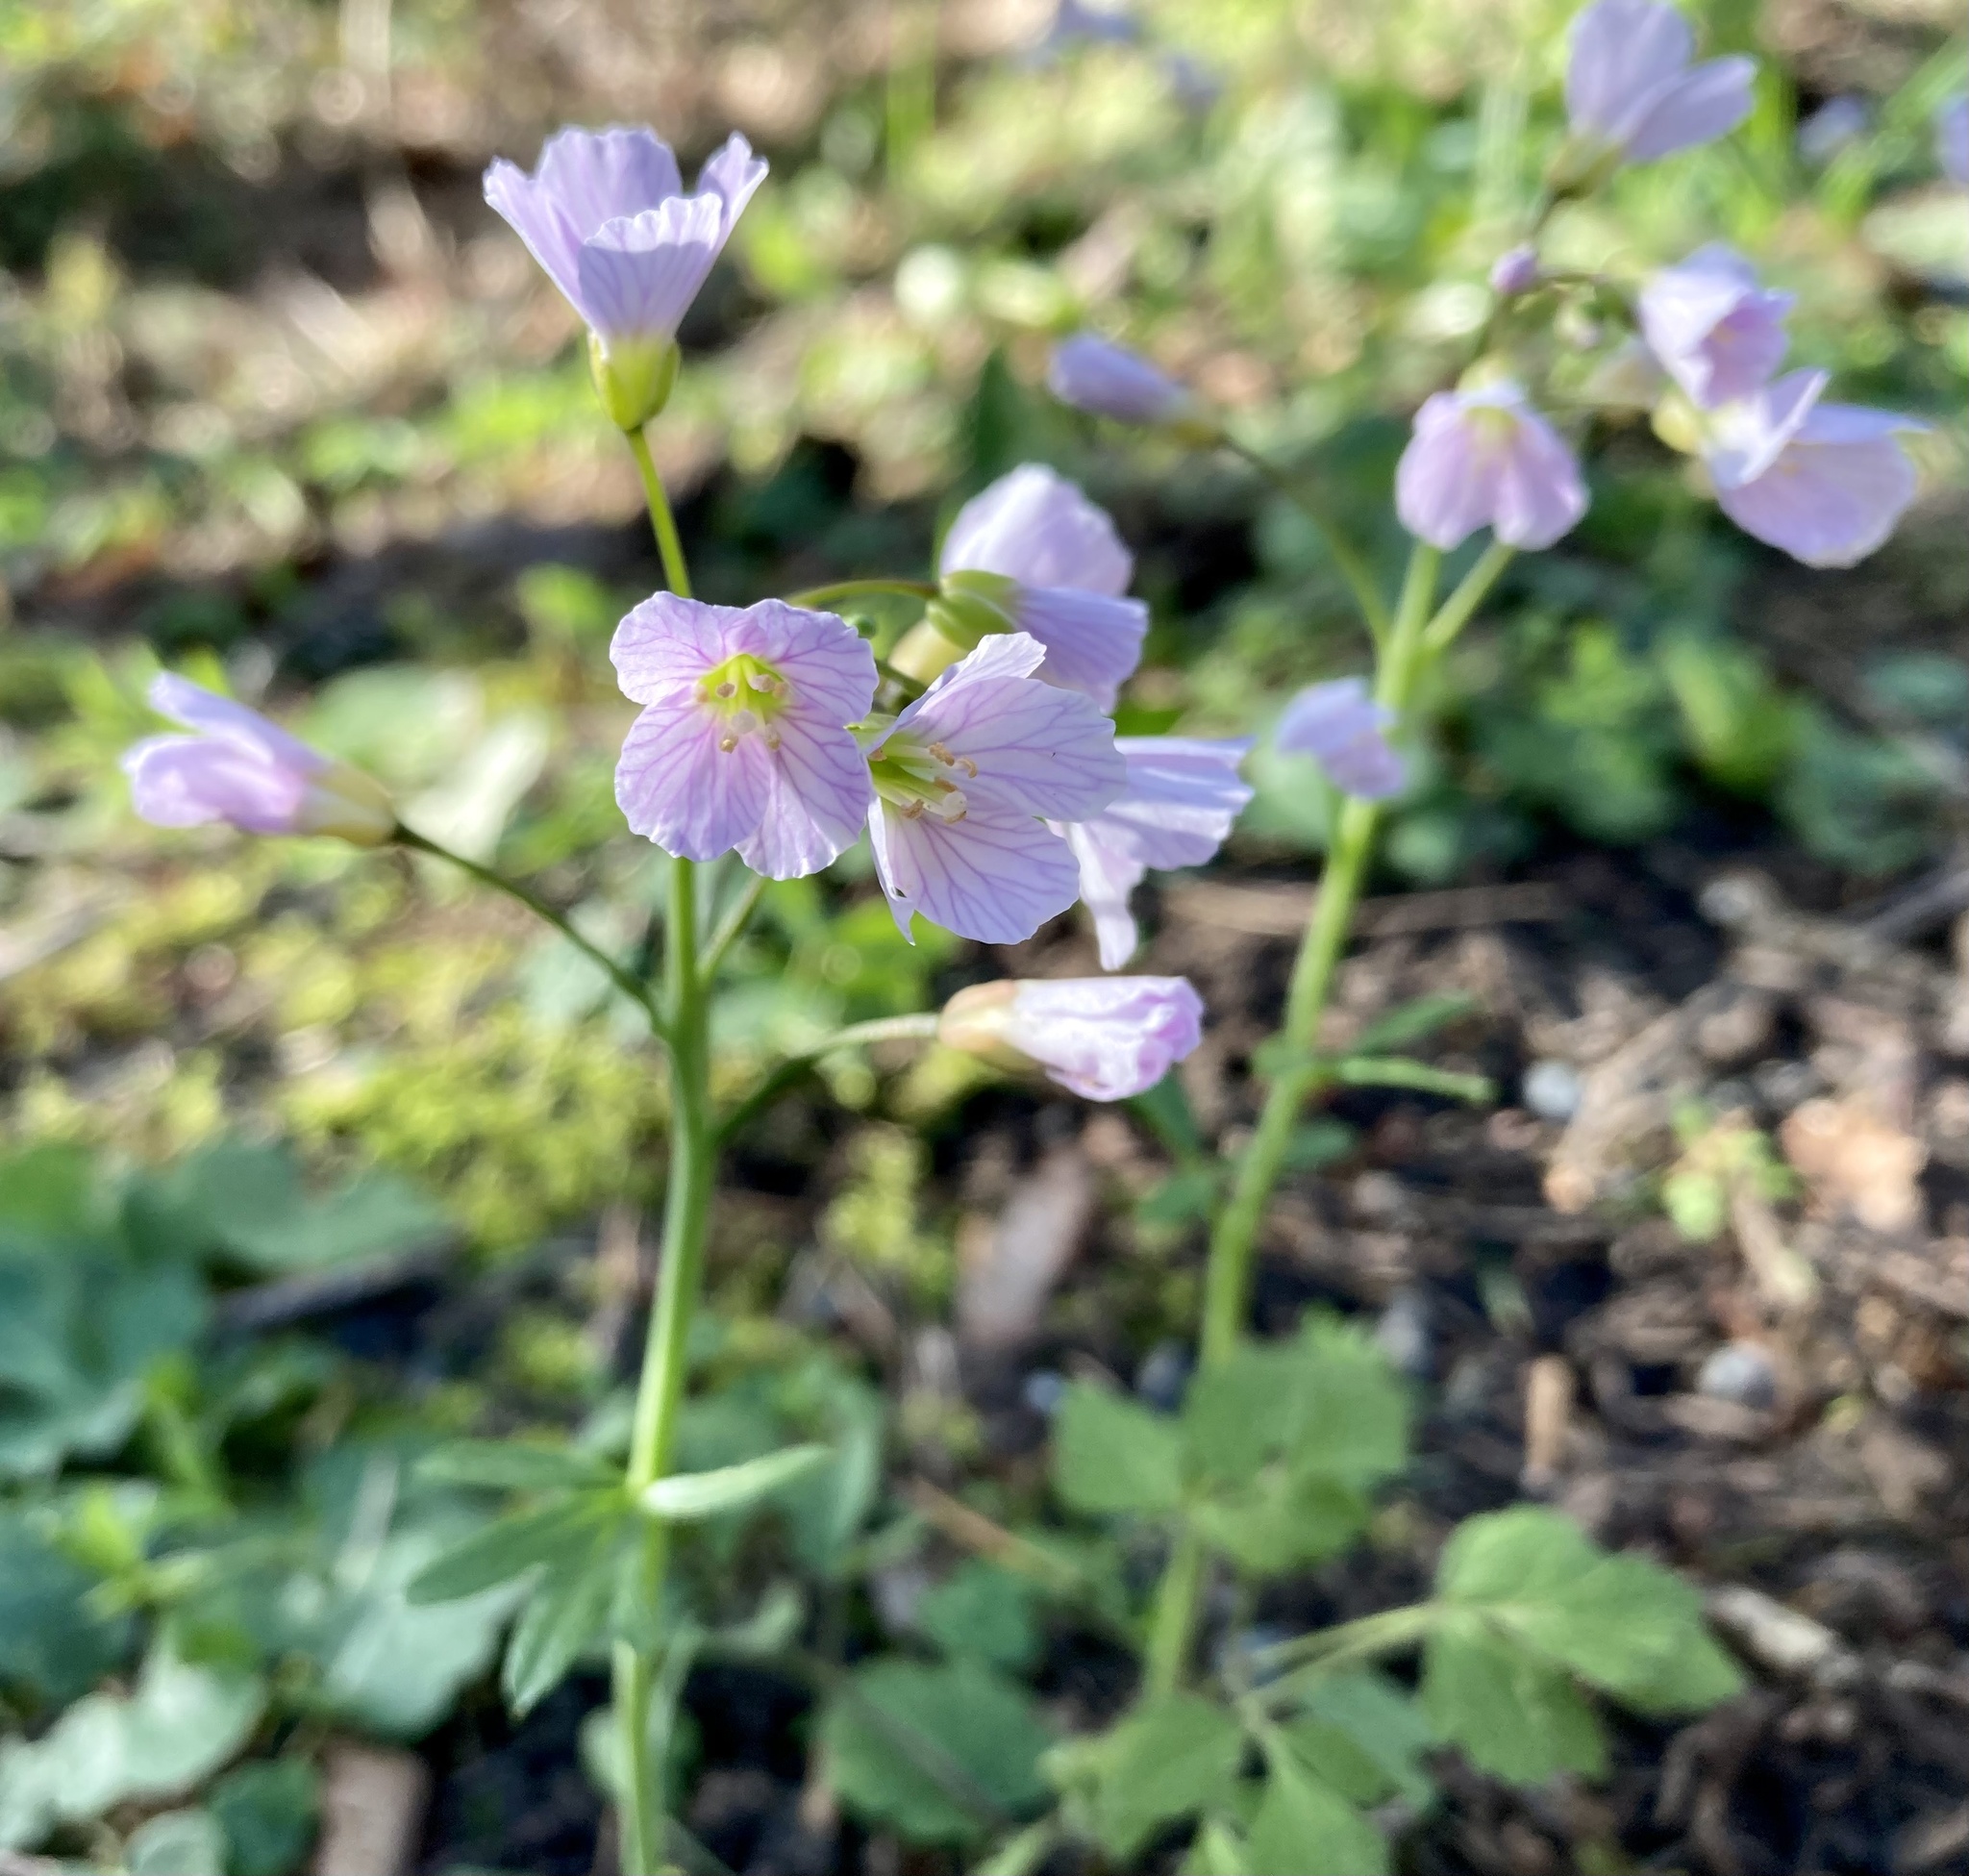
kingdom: Plantae
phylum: Tracheophyta
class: Magnoliopsida
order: Brassicales
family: Brassicaceae
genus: Cardamine
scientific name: Cardamine nuttallii
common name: Nuttall's toothwort
